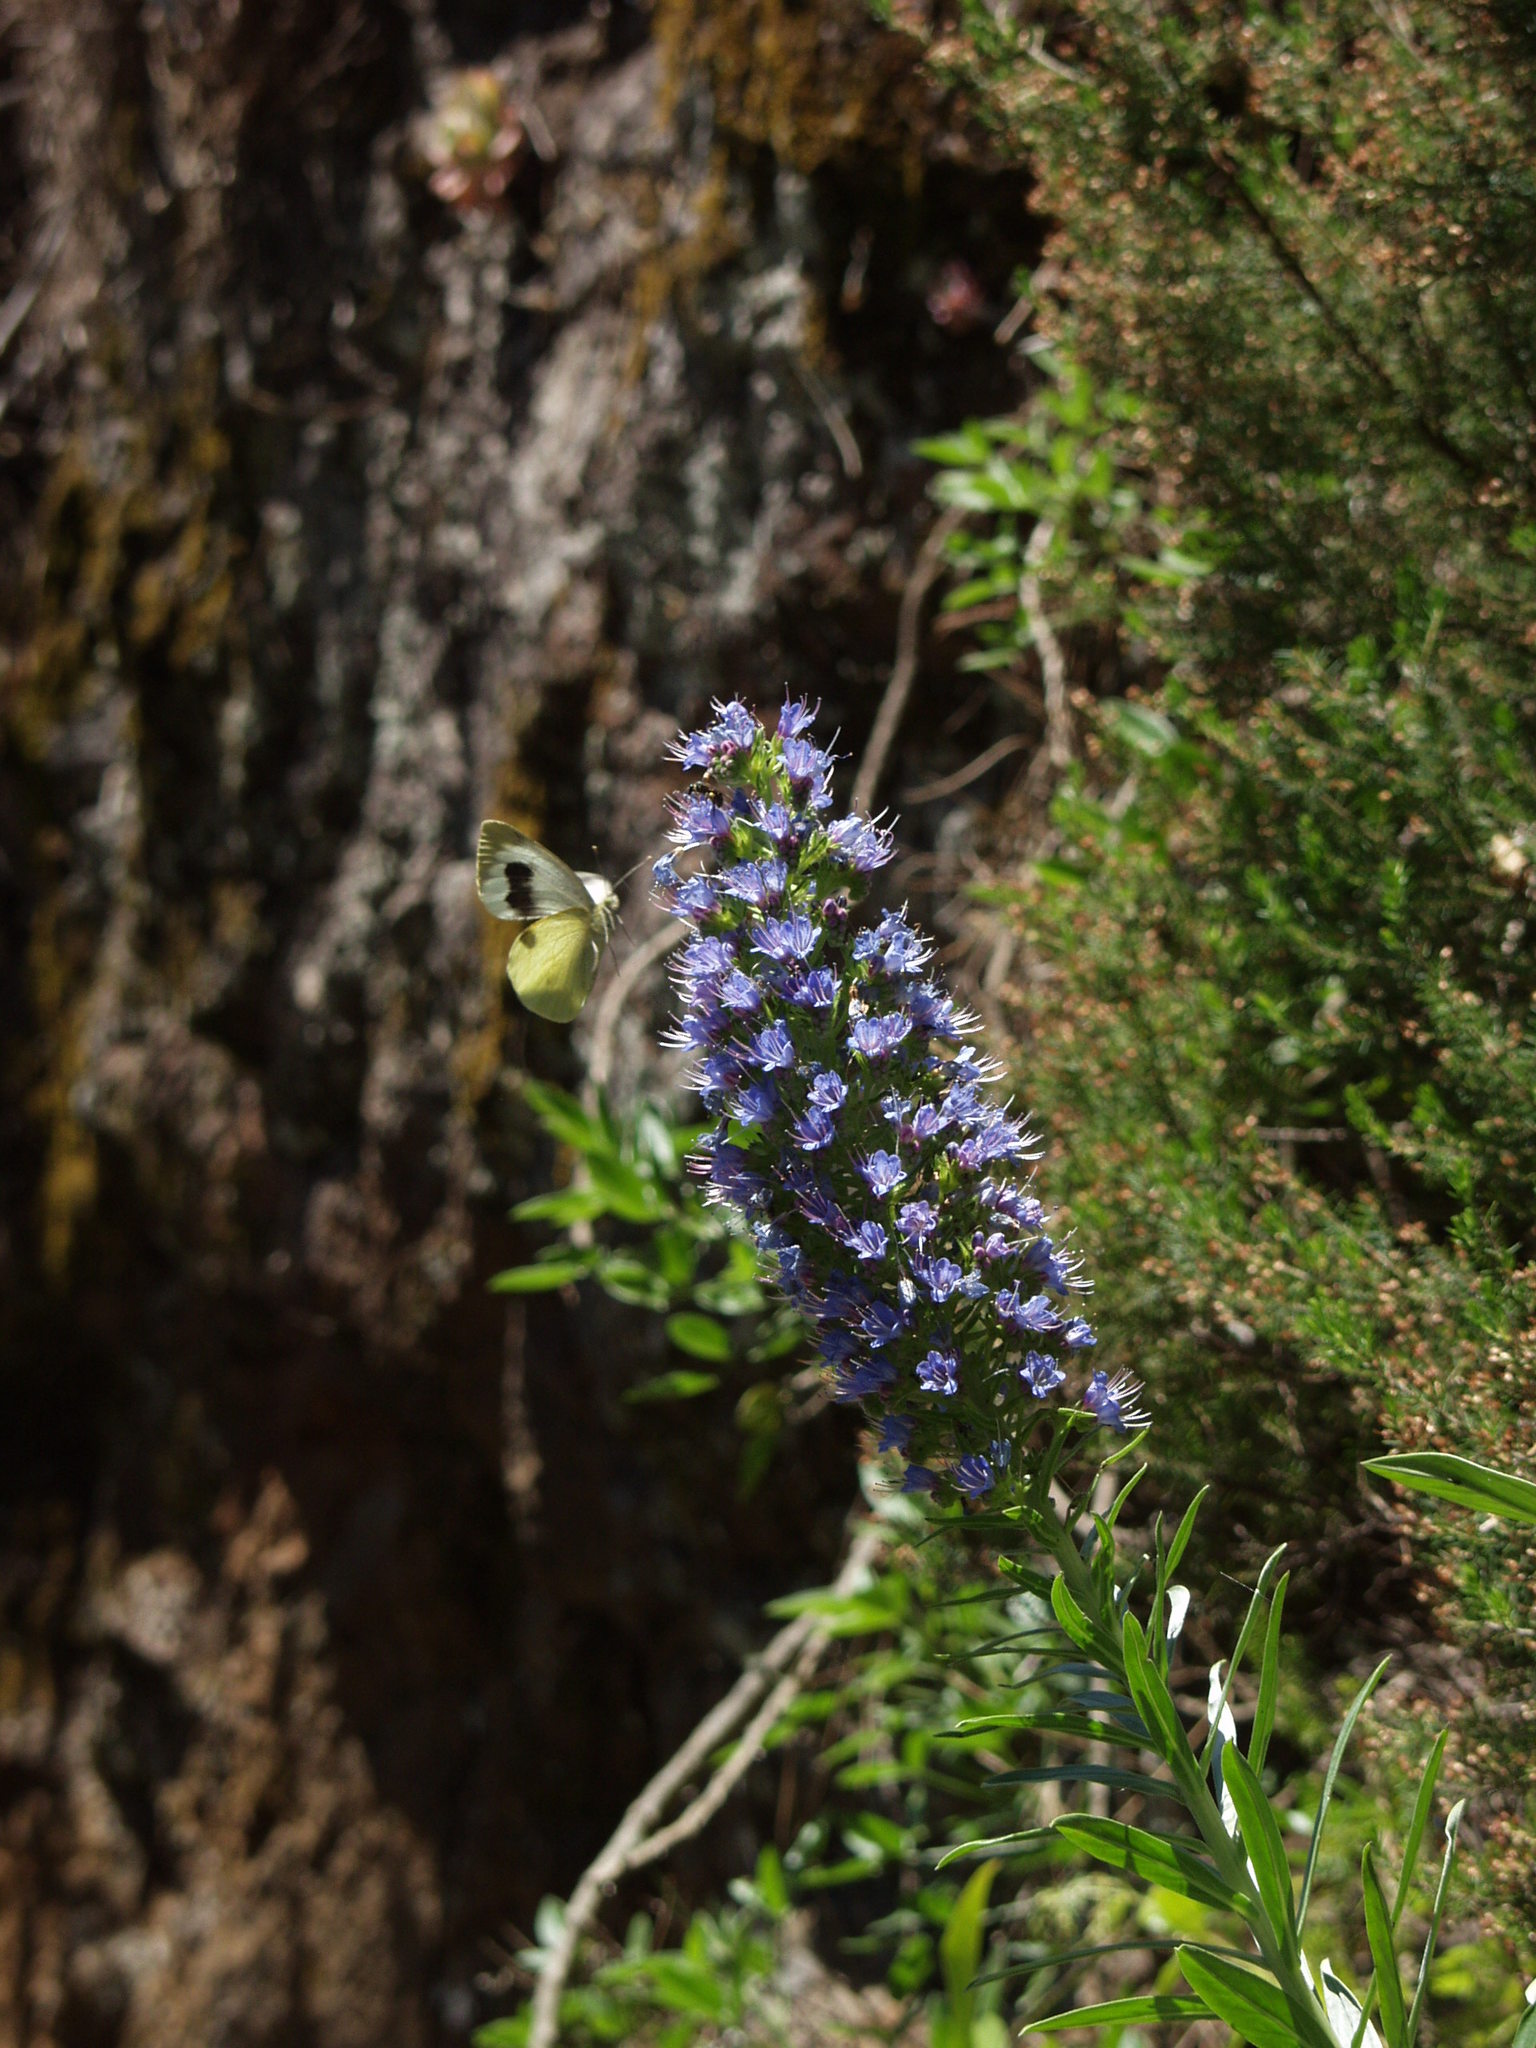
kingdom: Animalia
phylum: Arthropoda
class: Insecta
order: Lepidoptera
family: Pieridae
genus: Pieris
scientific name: Pieris cheiranthi
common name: Canary islands large white
